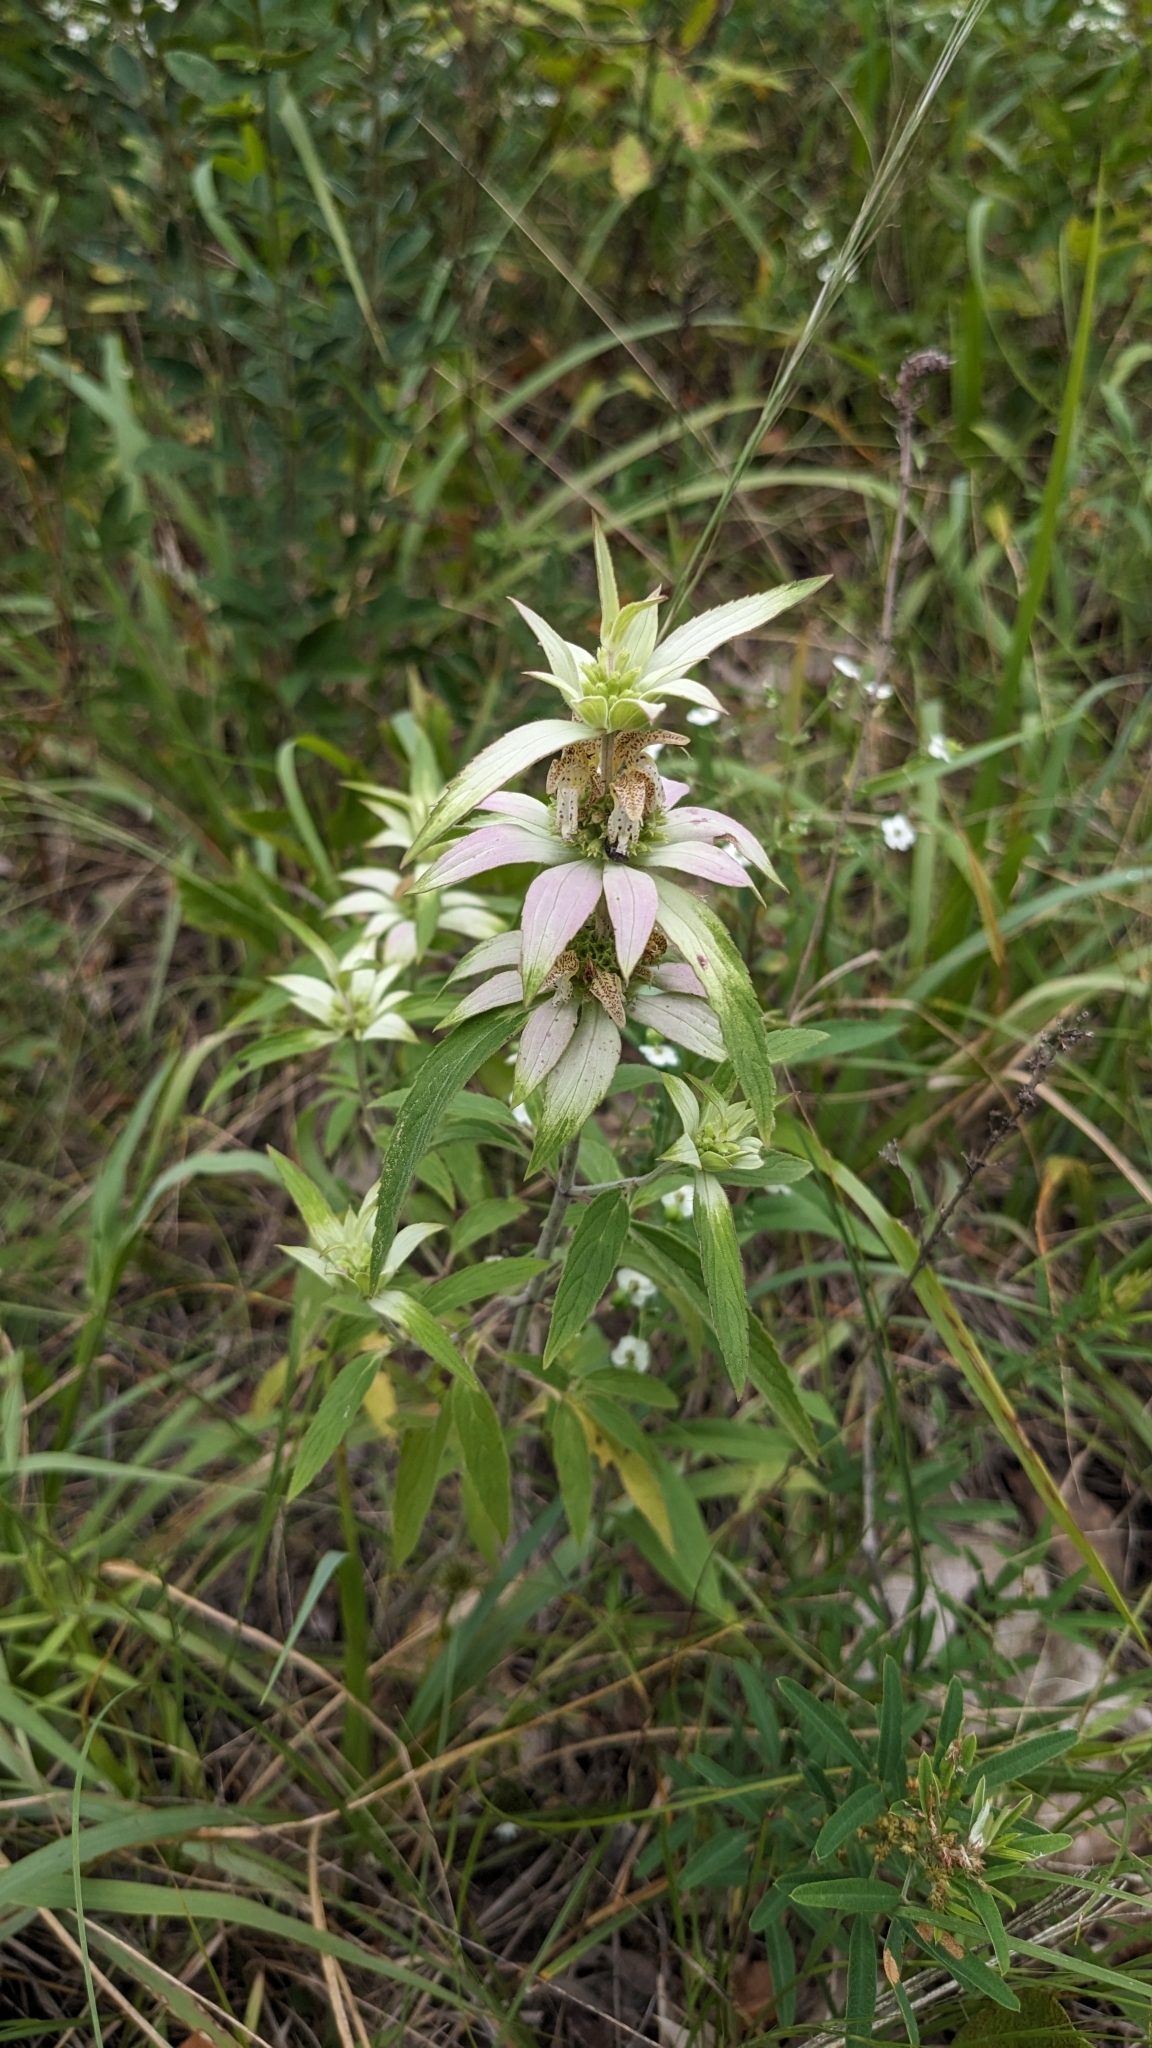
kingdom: Plantae
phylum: Tracheophyta
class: Magnoliopsida
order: Lamiales
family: Lamiaceae
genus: Monarda
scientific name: Monarda punctata
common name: Dotted monarda
